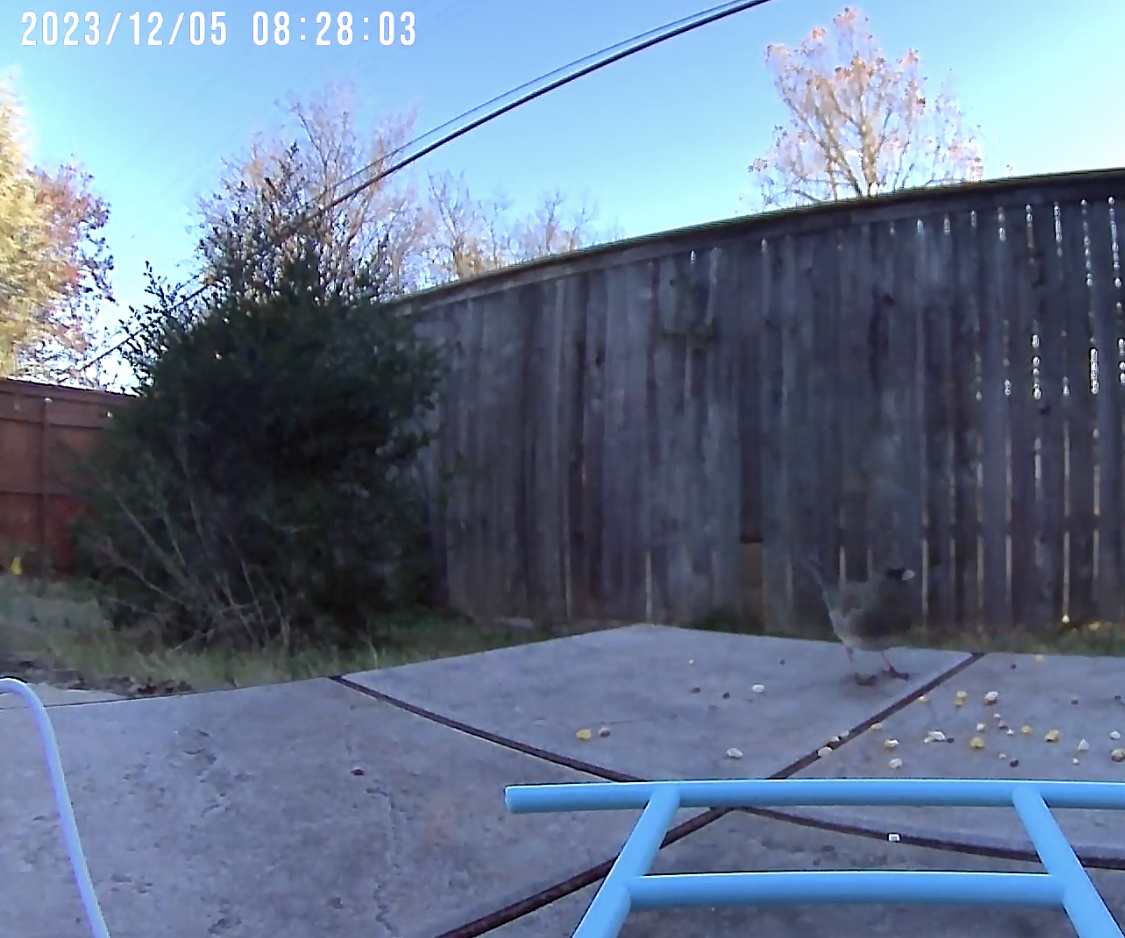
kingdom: Animalia
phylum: Chordata
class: Aves
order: Passeriformes
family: Passerellidae
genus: Junco
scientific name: Junco hyemalis
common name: Dark-eyed junco
